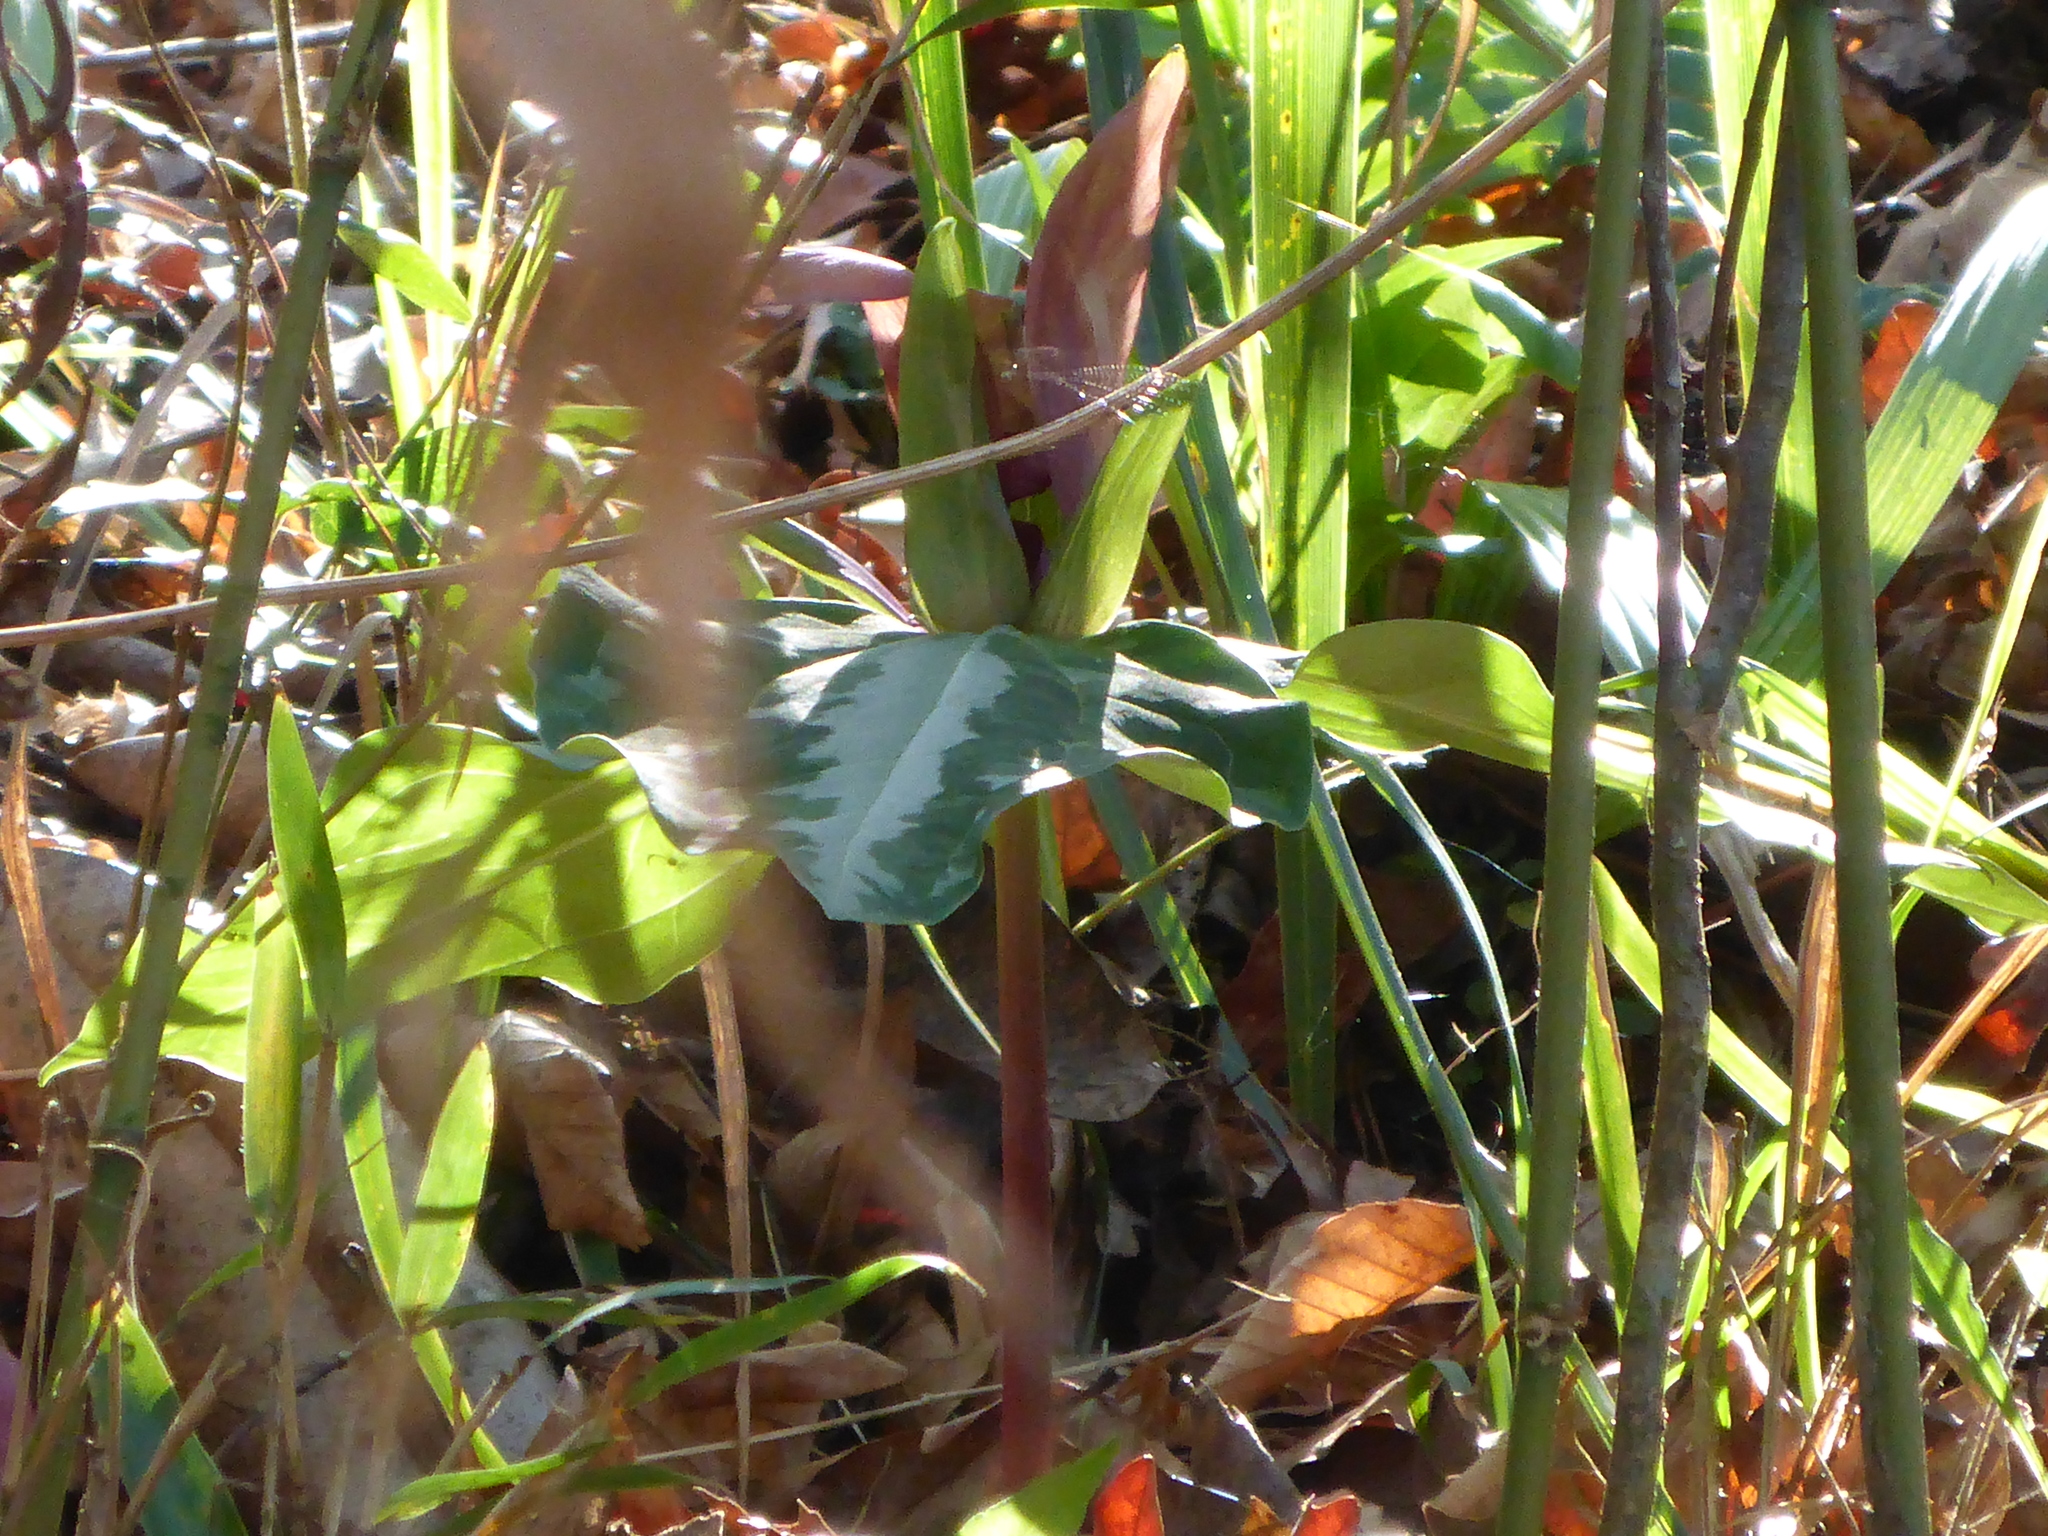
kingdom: Plantae
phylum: Tracheophyta
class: Liliopsida
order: Liliales
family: Melanthiaceae
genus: Trillium
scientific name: Trillium underwoodii
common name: Longbract wakerobin
